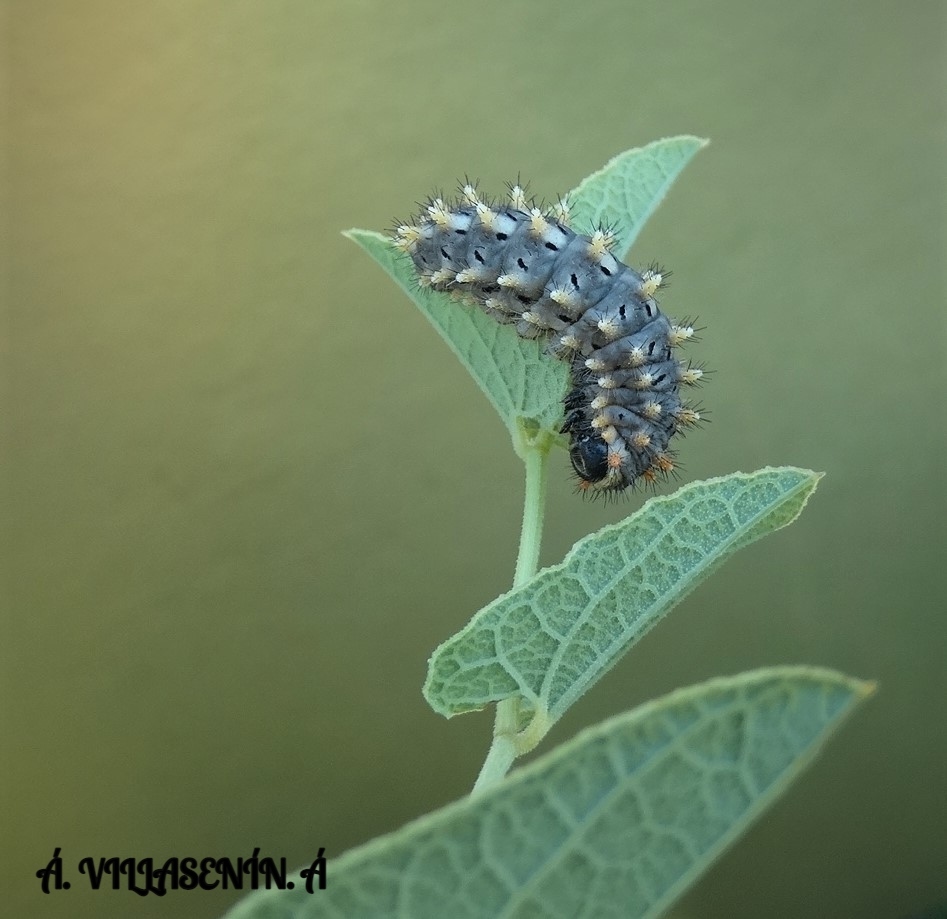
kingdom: Animalia
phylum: Arthropoda
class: Insecta
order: Lepidoptera
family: Papilionidae
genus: Zerynthia
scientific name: Zerynthia rumina
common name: Spanish festoon
